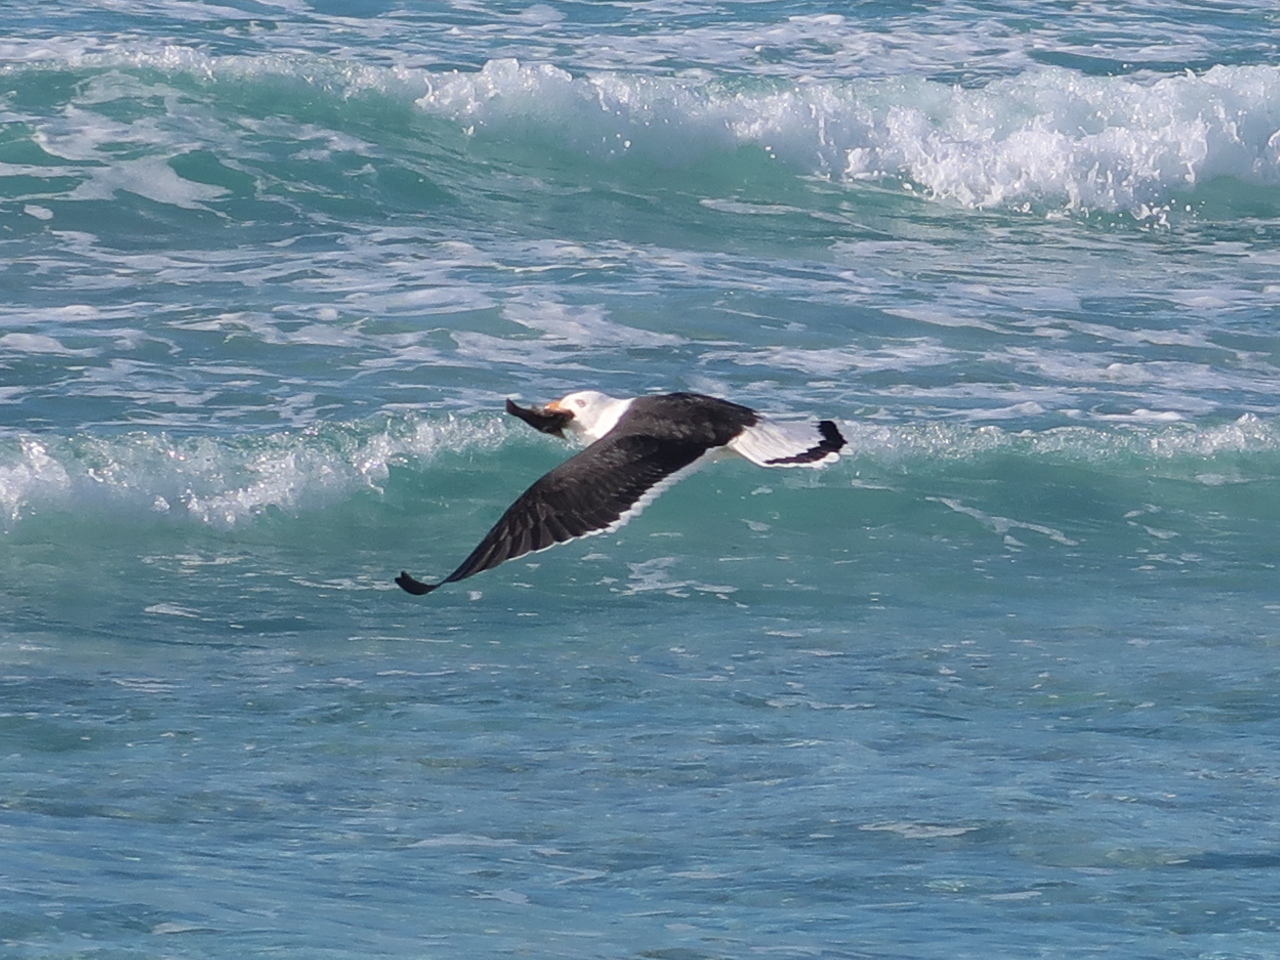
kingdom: Animalia
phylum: Chordata
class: Aves
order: Charadriiformes
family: Laridae
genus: Larus
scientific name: Larus pacificus
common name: Pacific gull
